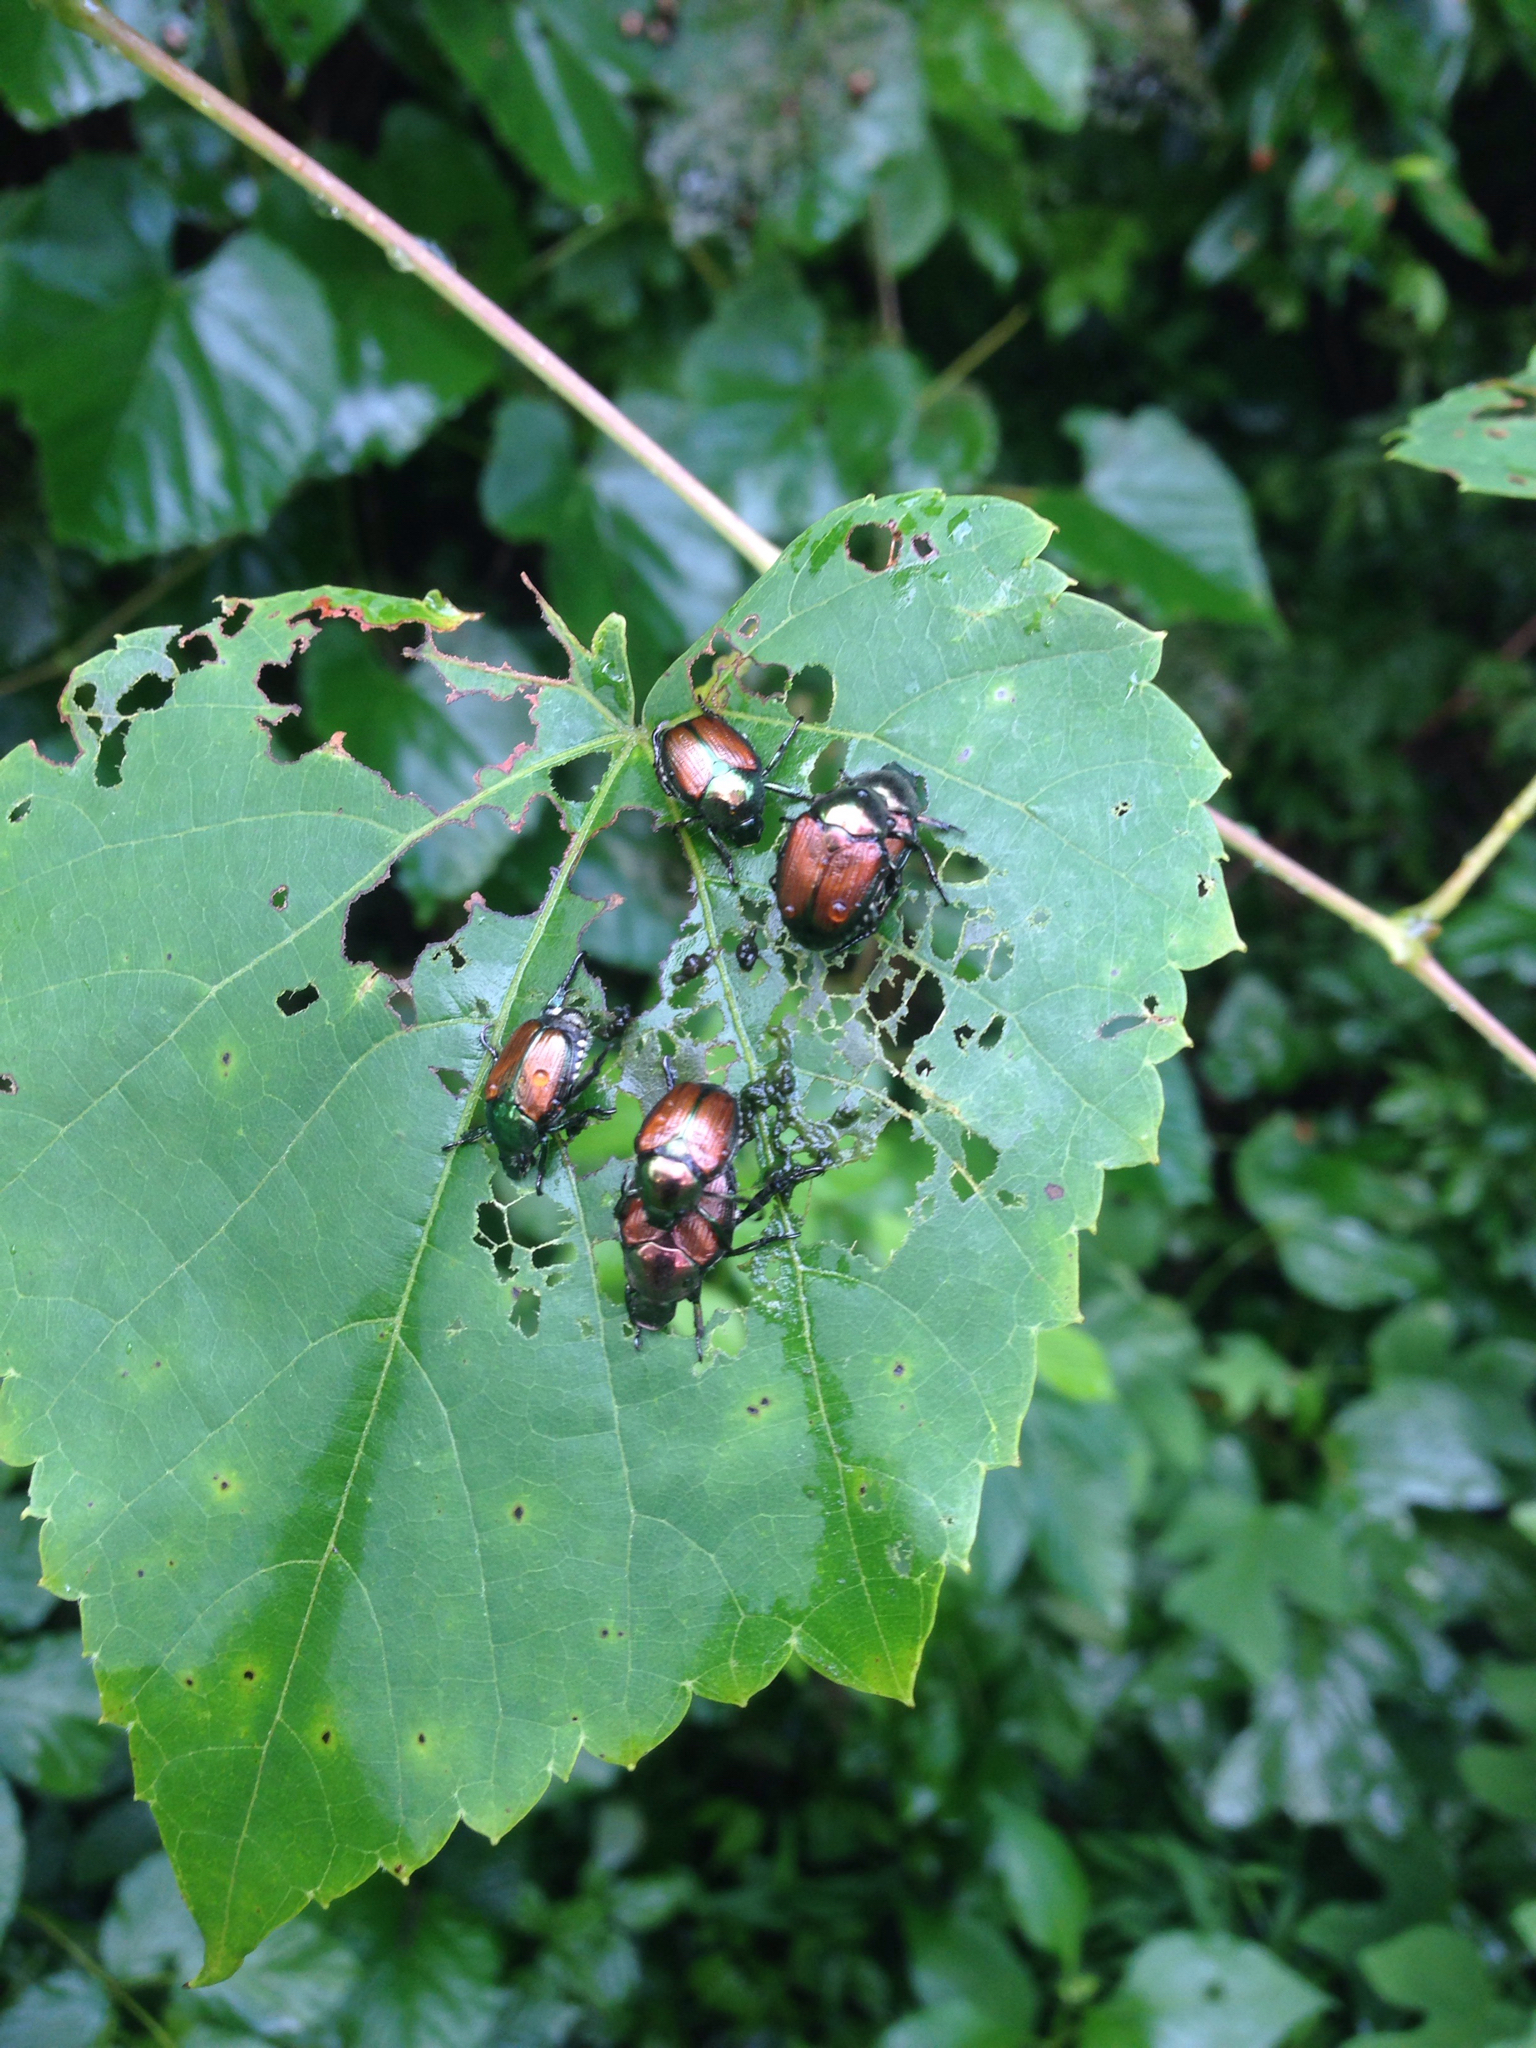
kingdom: Animalia
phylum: Arthropoda
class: Insecta
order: Coleoptera
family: Scarabaeidae
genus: Popillia
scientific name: Popillia japonica
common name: Japanese beetle
